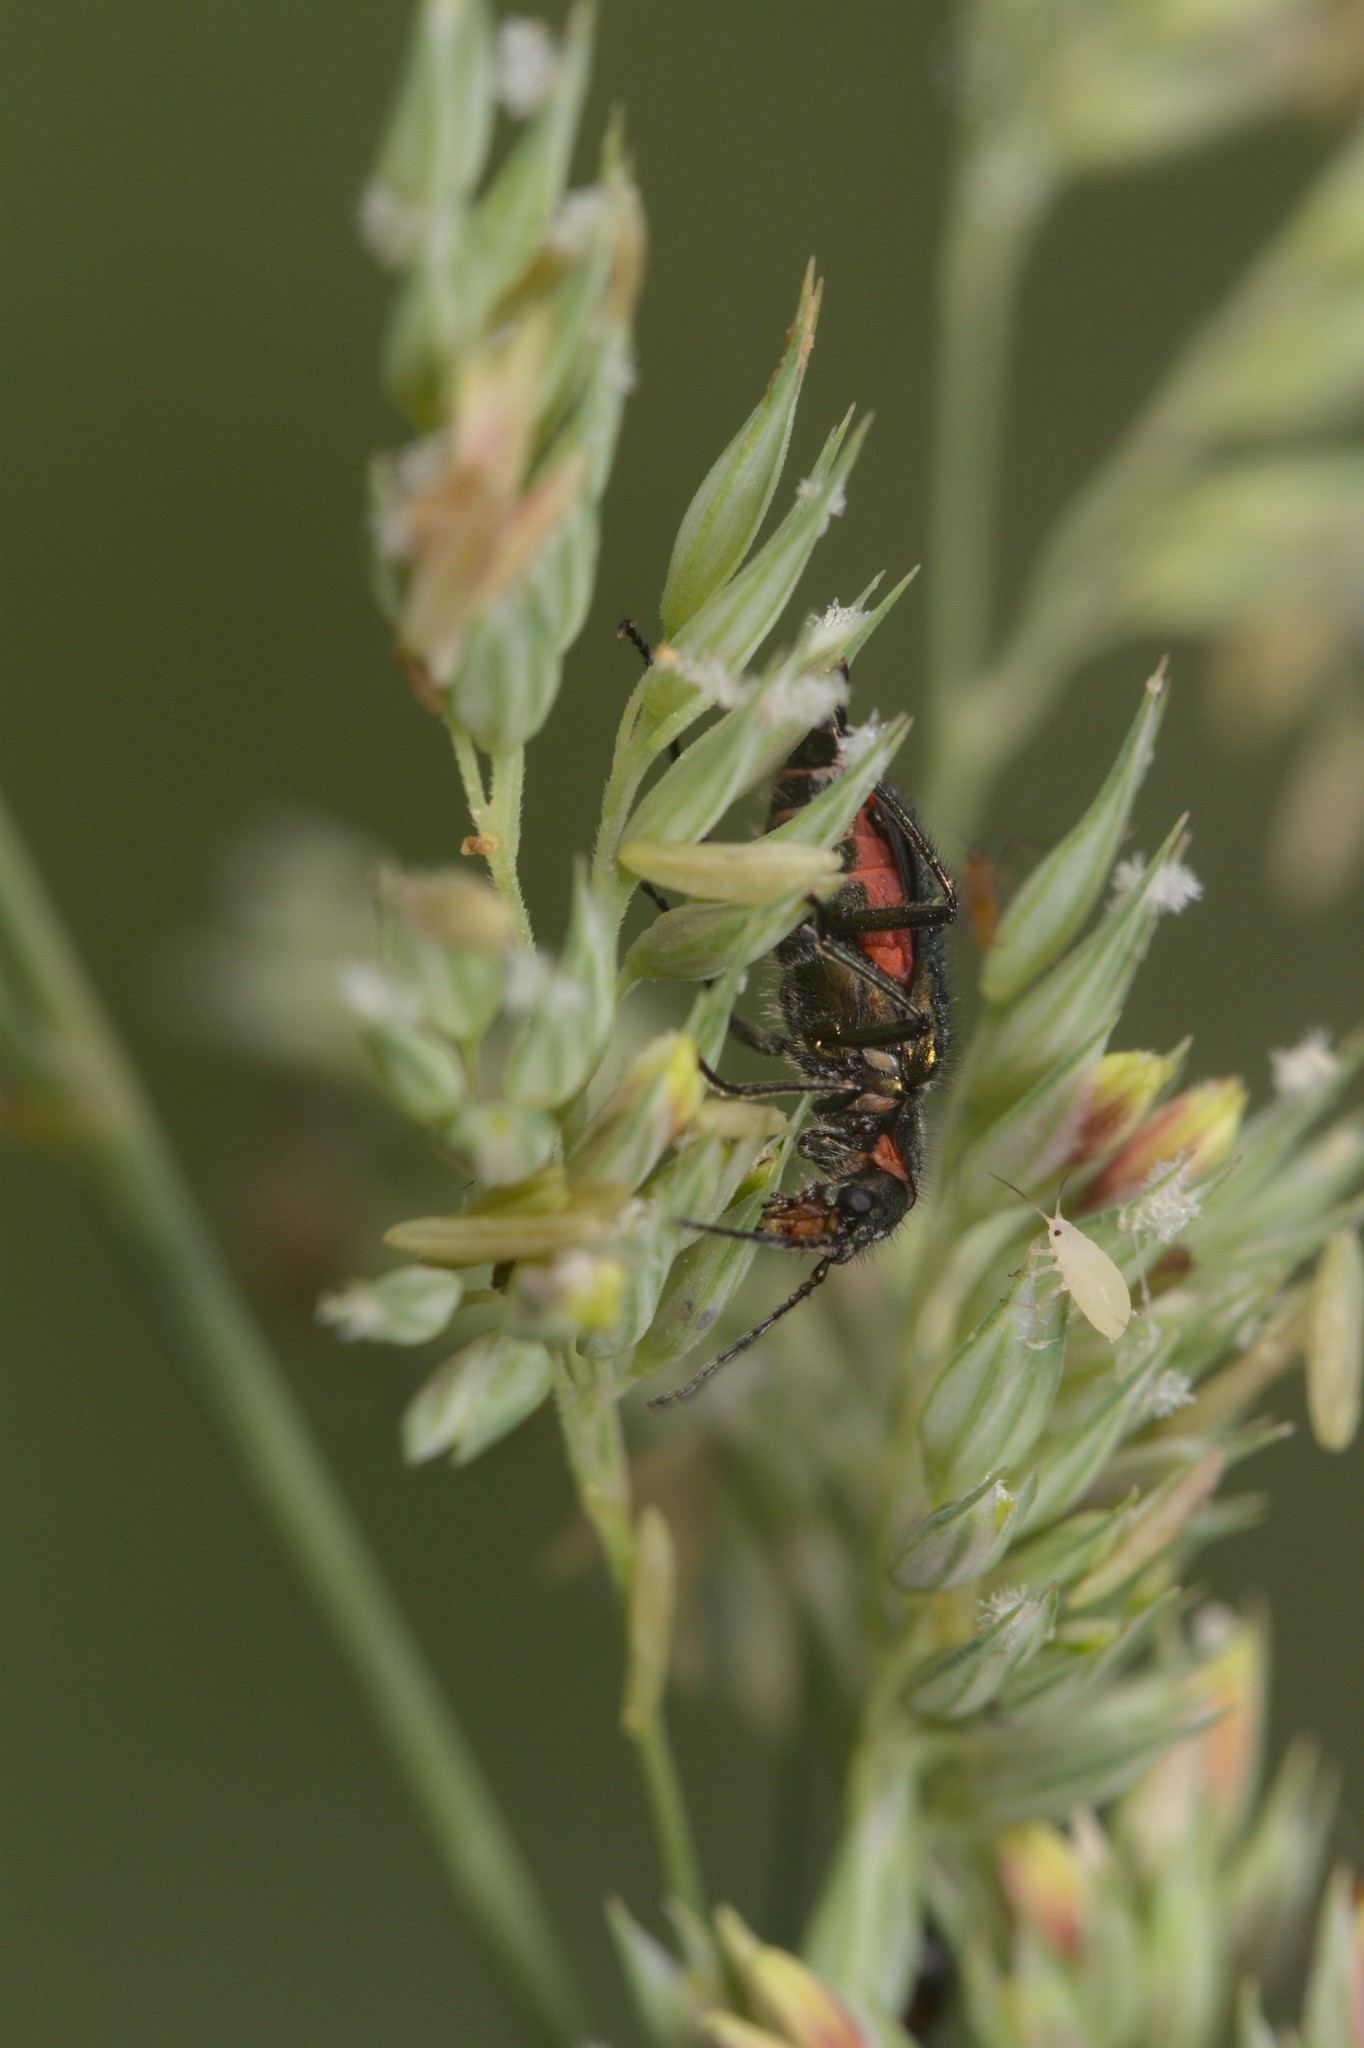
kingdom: Animalia
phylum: Arthropoda
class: Insecta
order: Coleoptera
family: Melyridae
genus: Malachius
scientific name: Malachius bipustulatus
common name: Malachite beetle
